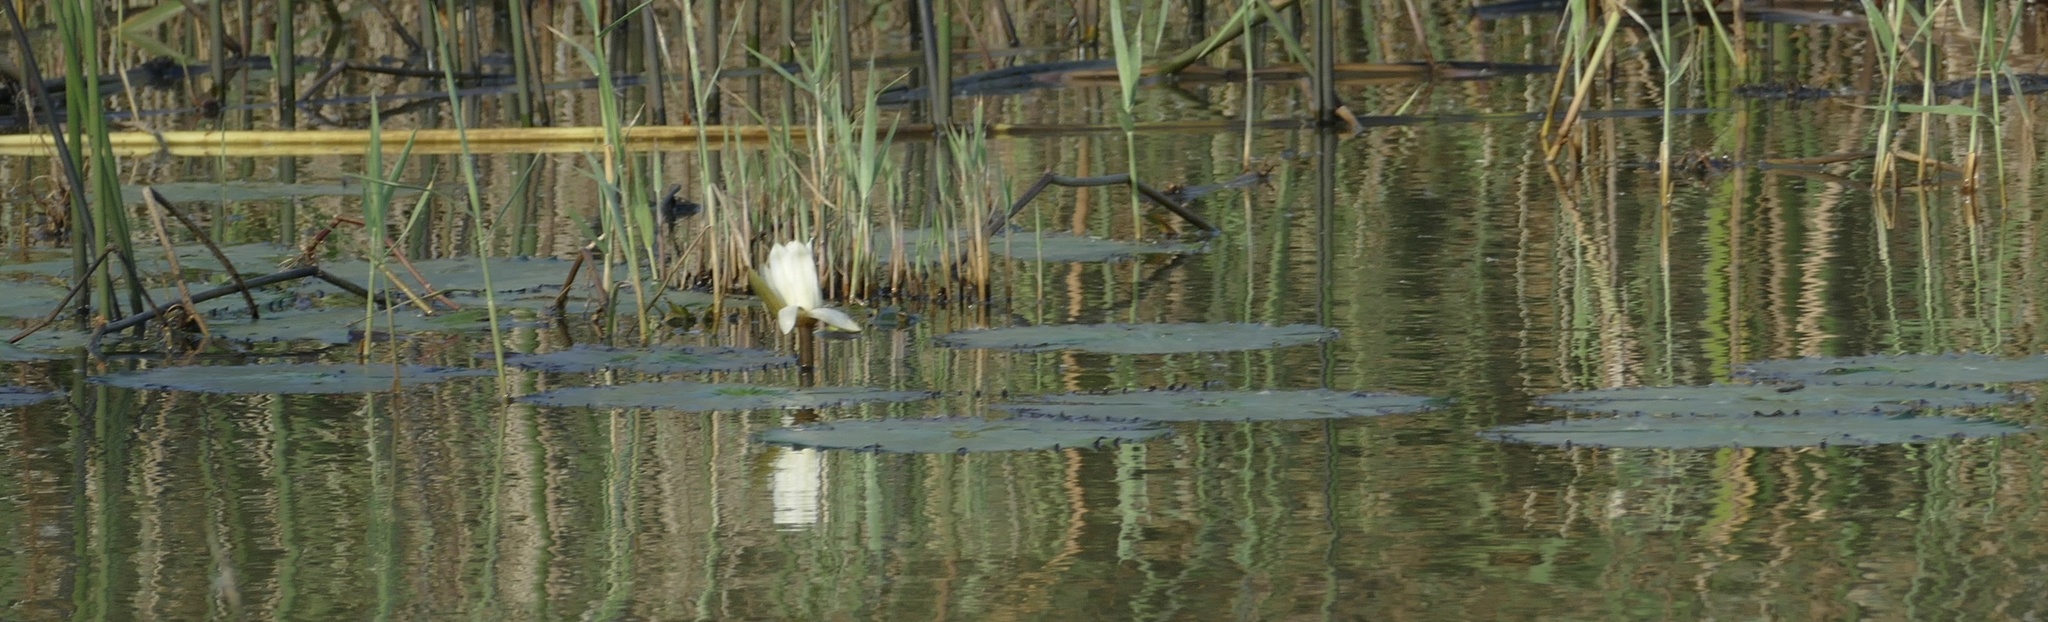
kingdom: Plantae
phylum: Tracheophyta
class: Magnoliopsida
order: Nymphaeales
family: Nymphaeaceae
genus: Nymphaea
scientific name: Nymphaea lotus
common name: White egyptian lotus
